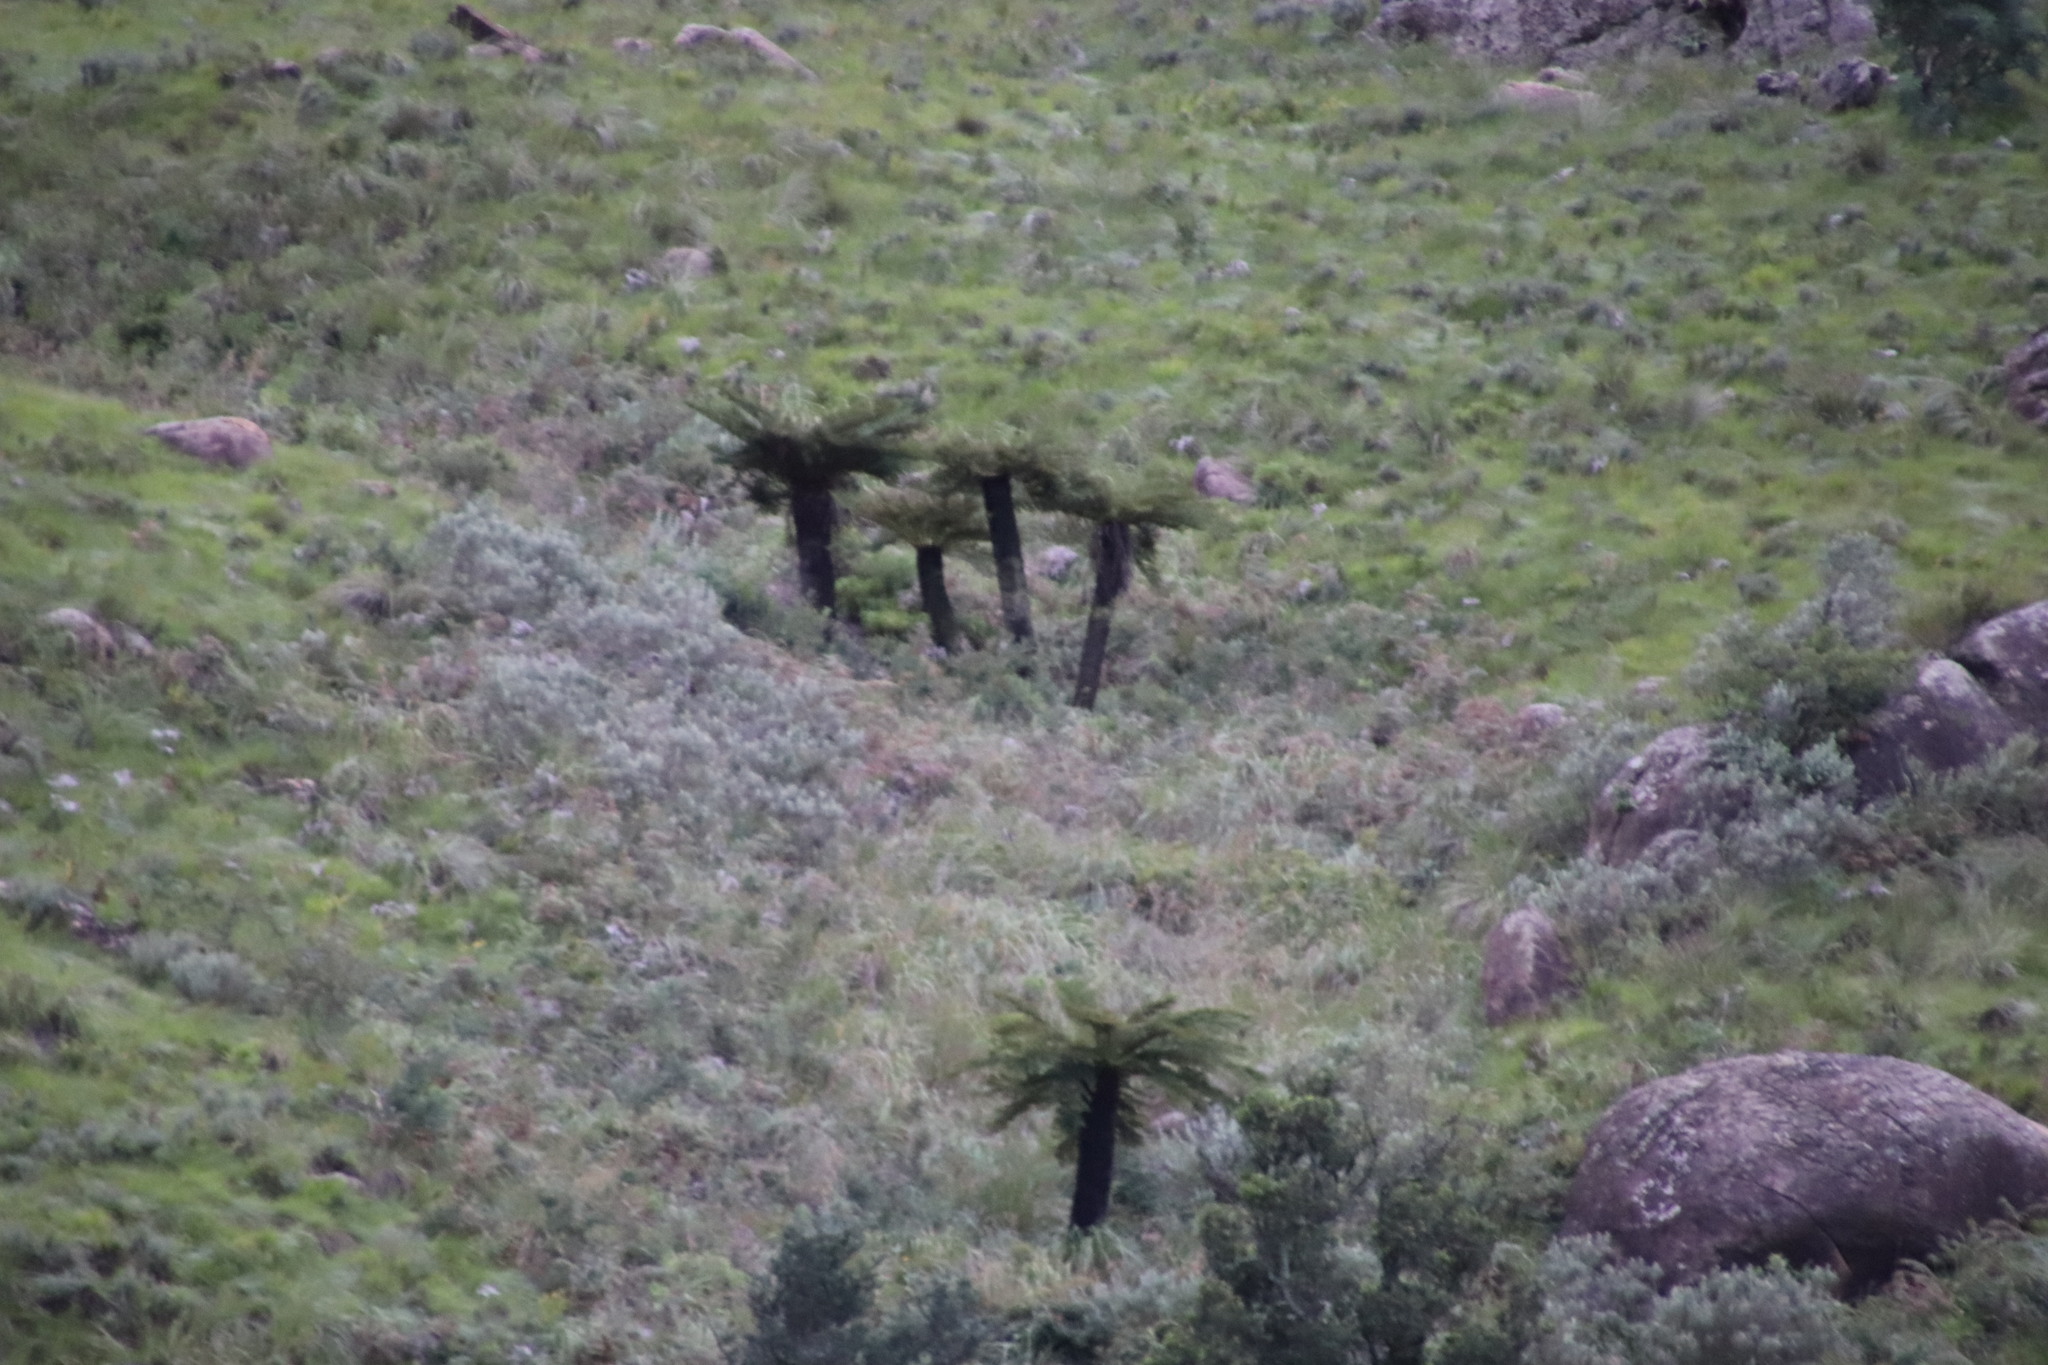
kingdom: Plantae
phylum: Tracheophyta
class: Polypodiopsida
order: Cyatheales
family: Cyatheaceae
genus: Alsophila
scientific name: Alsophila dregei
